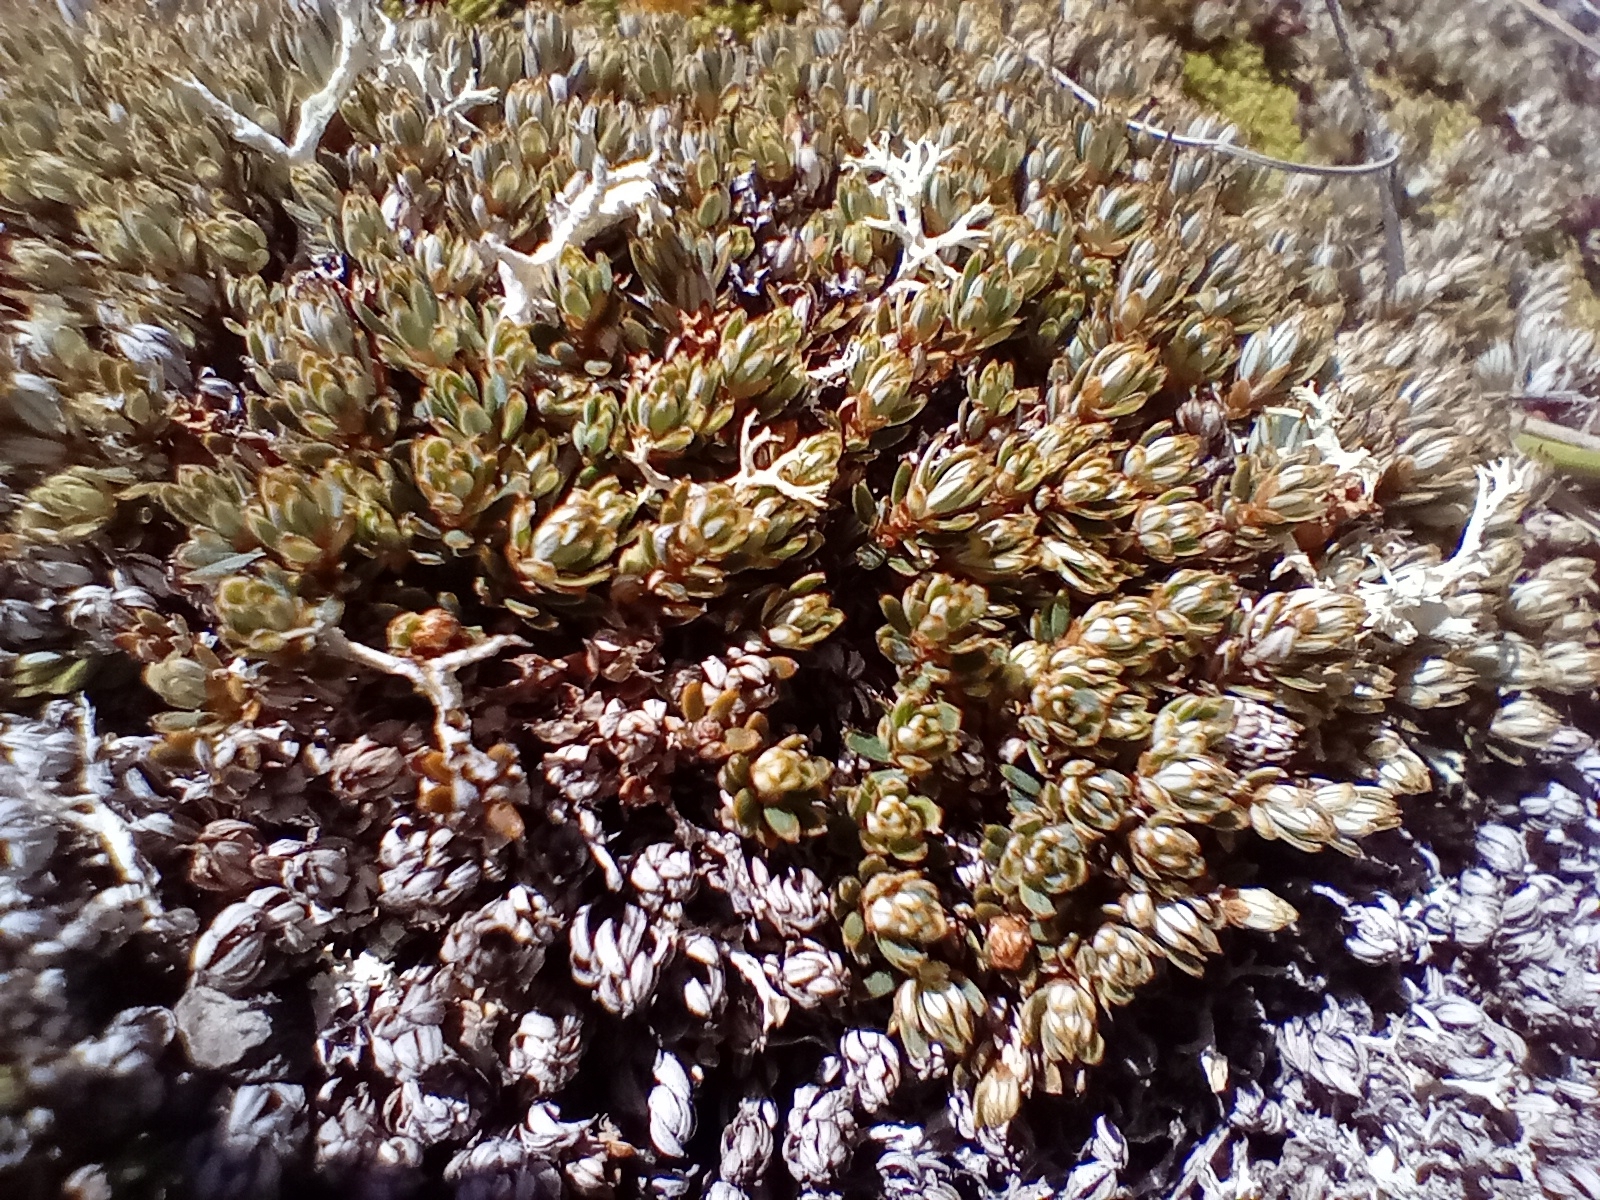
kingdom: Plantae
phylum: Tracheophyta
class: Magnoliopsida
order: Ericales
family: Ericaceae
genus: Montitega
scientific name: Montitega dealbata
